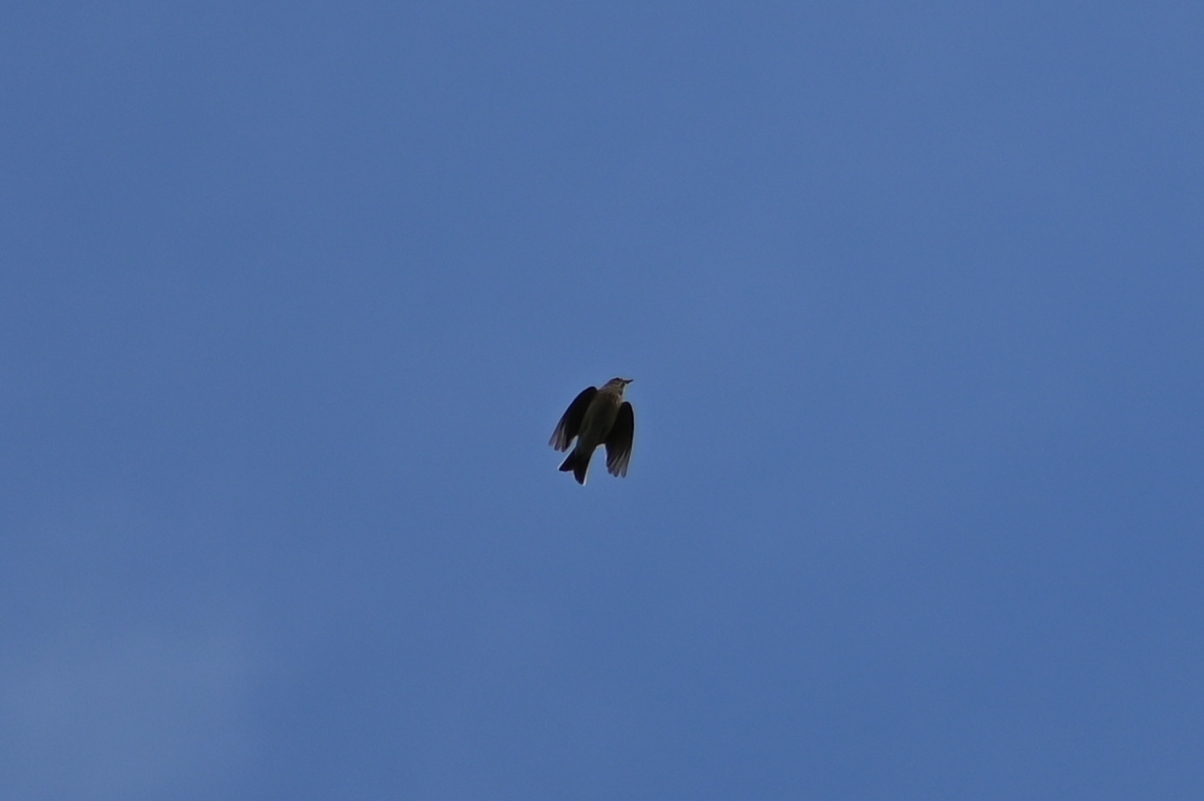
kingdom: Animalia
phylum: Chordata
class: Aves
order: Passeriformes
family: Alaudidae
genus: Alauda
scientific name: Alauda arvensis
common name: Eurasian skylark
